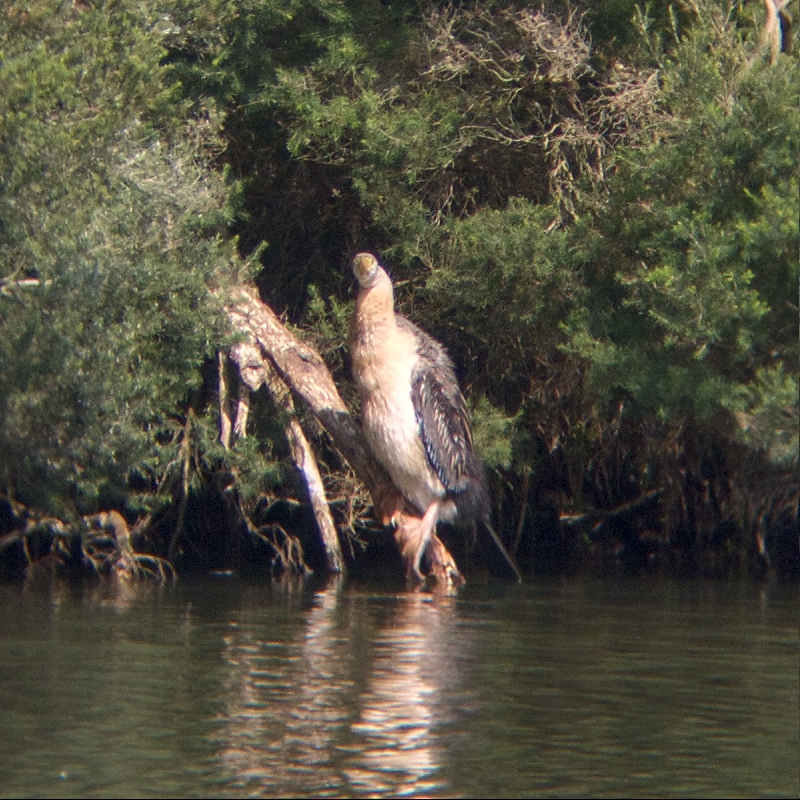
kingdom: Animalia
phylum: Chordata
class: Aves
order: Suliformes
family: Anhingidae
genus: Anhinga
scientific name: Anhinga novaehollandiae
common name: Australasian darter
